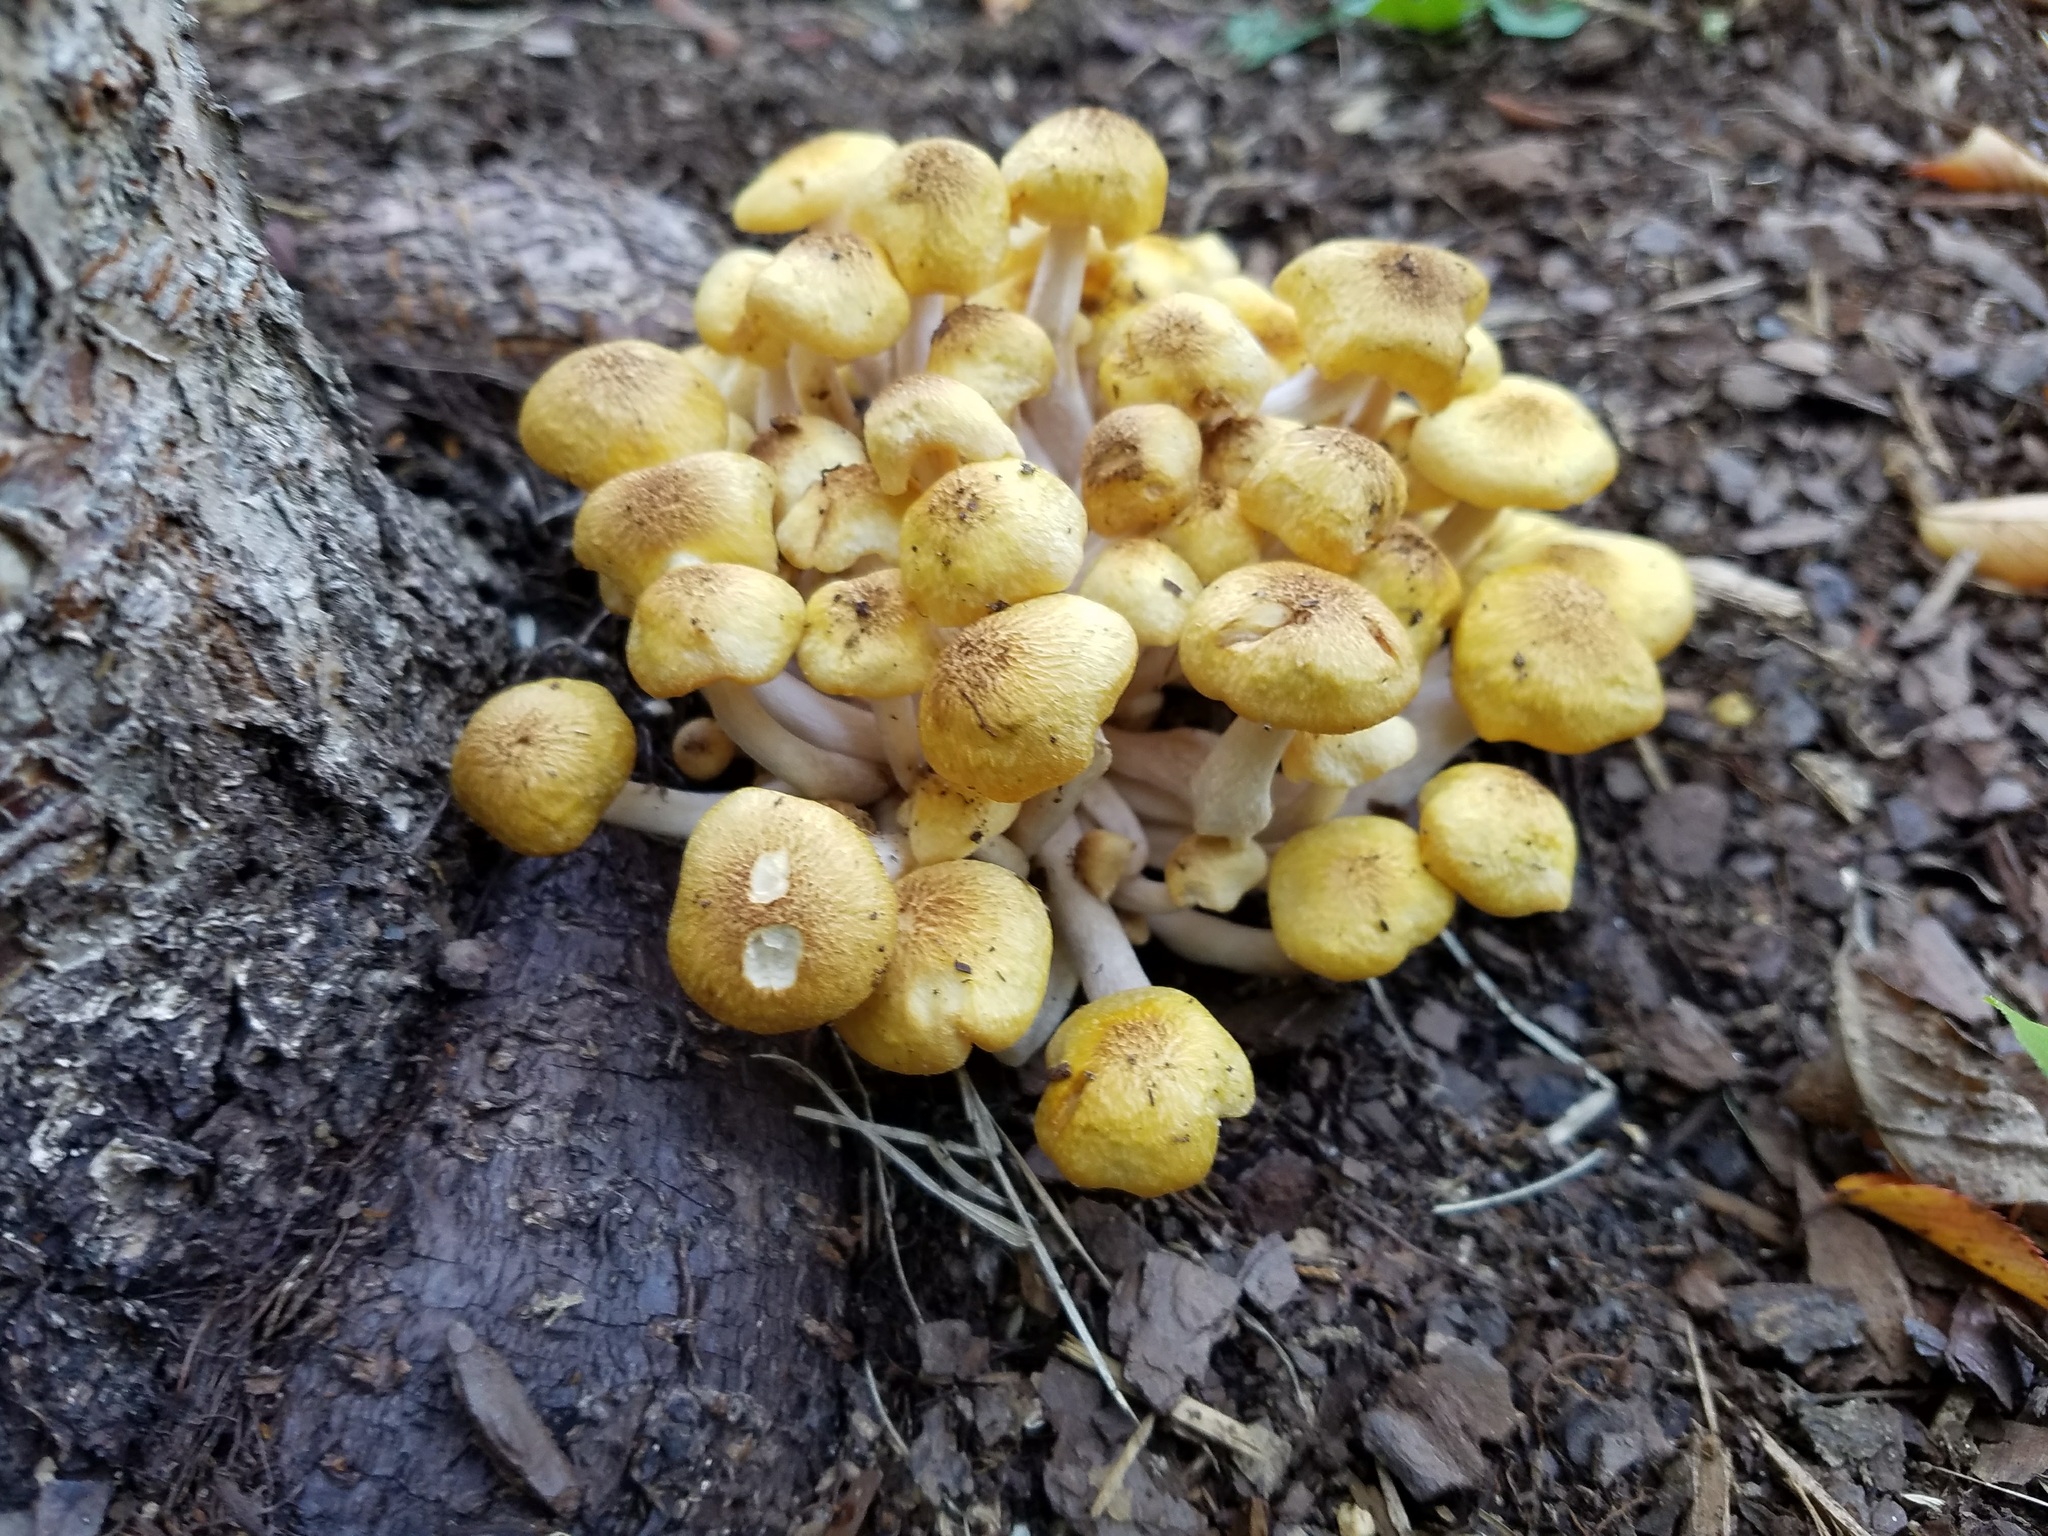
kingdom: Fungi
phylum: Basidiomycota
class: Agaricomycetes
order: Agaricales
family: Physalacriaceae
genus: Armillaria
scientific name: Armillaria mellea
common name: Honey fungus
